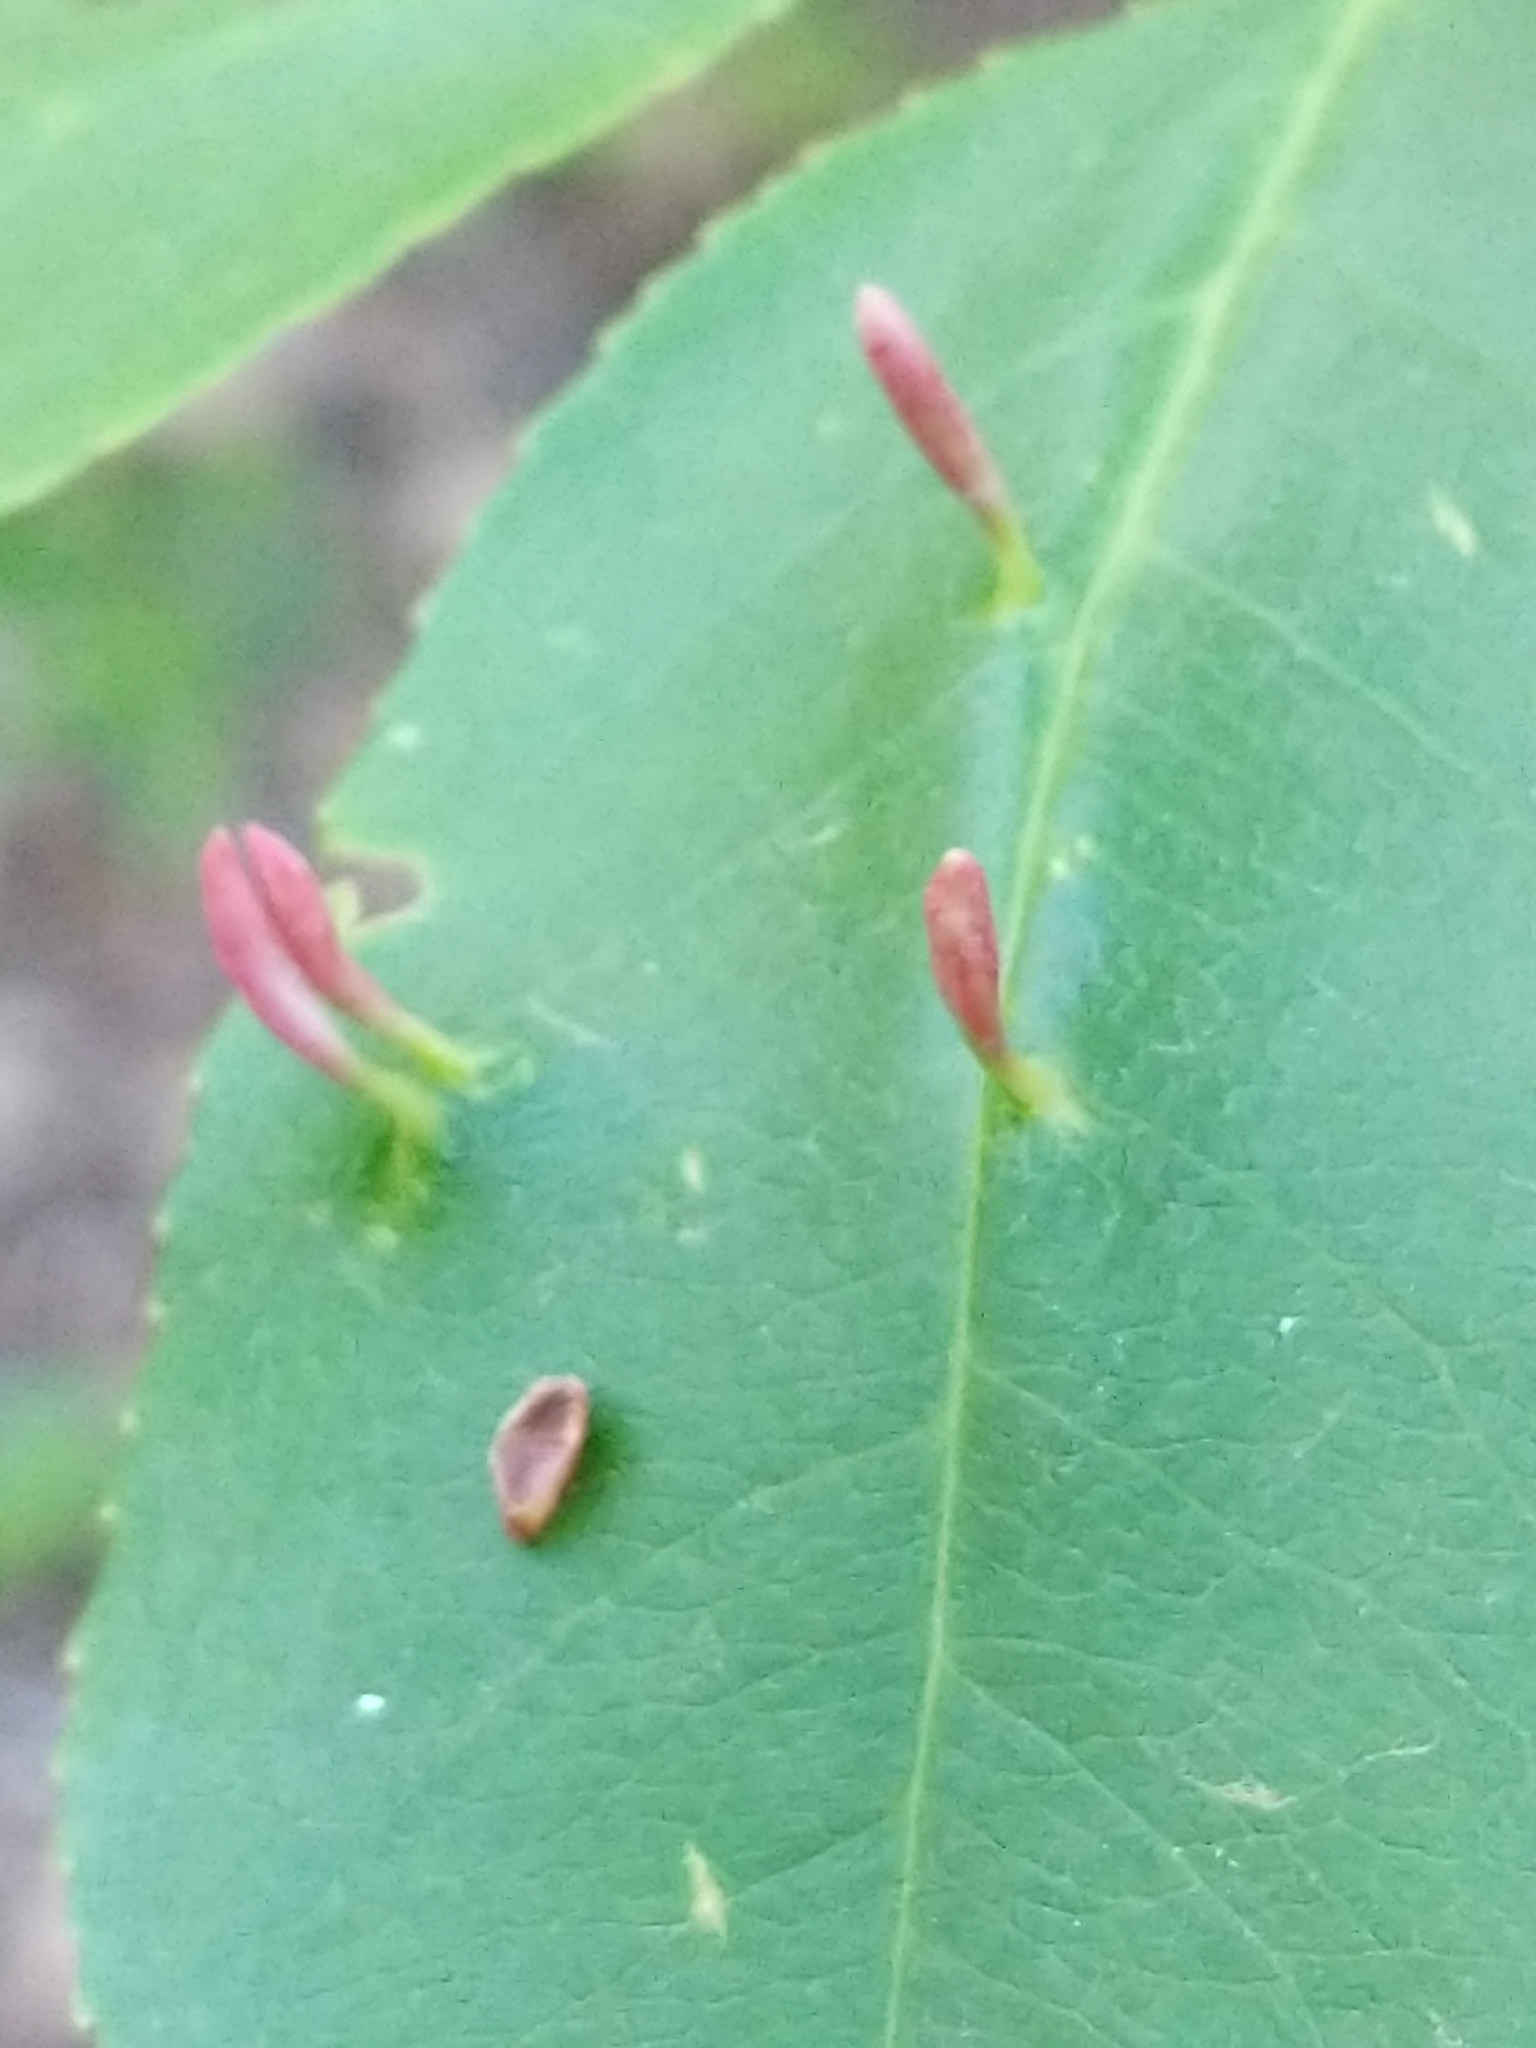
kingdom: Animalia
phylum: Arthropoda
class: Arachnida
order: Trombidiformes
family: Eriophyidae
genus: Eriophyes
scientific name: Eriophyes
